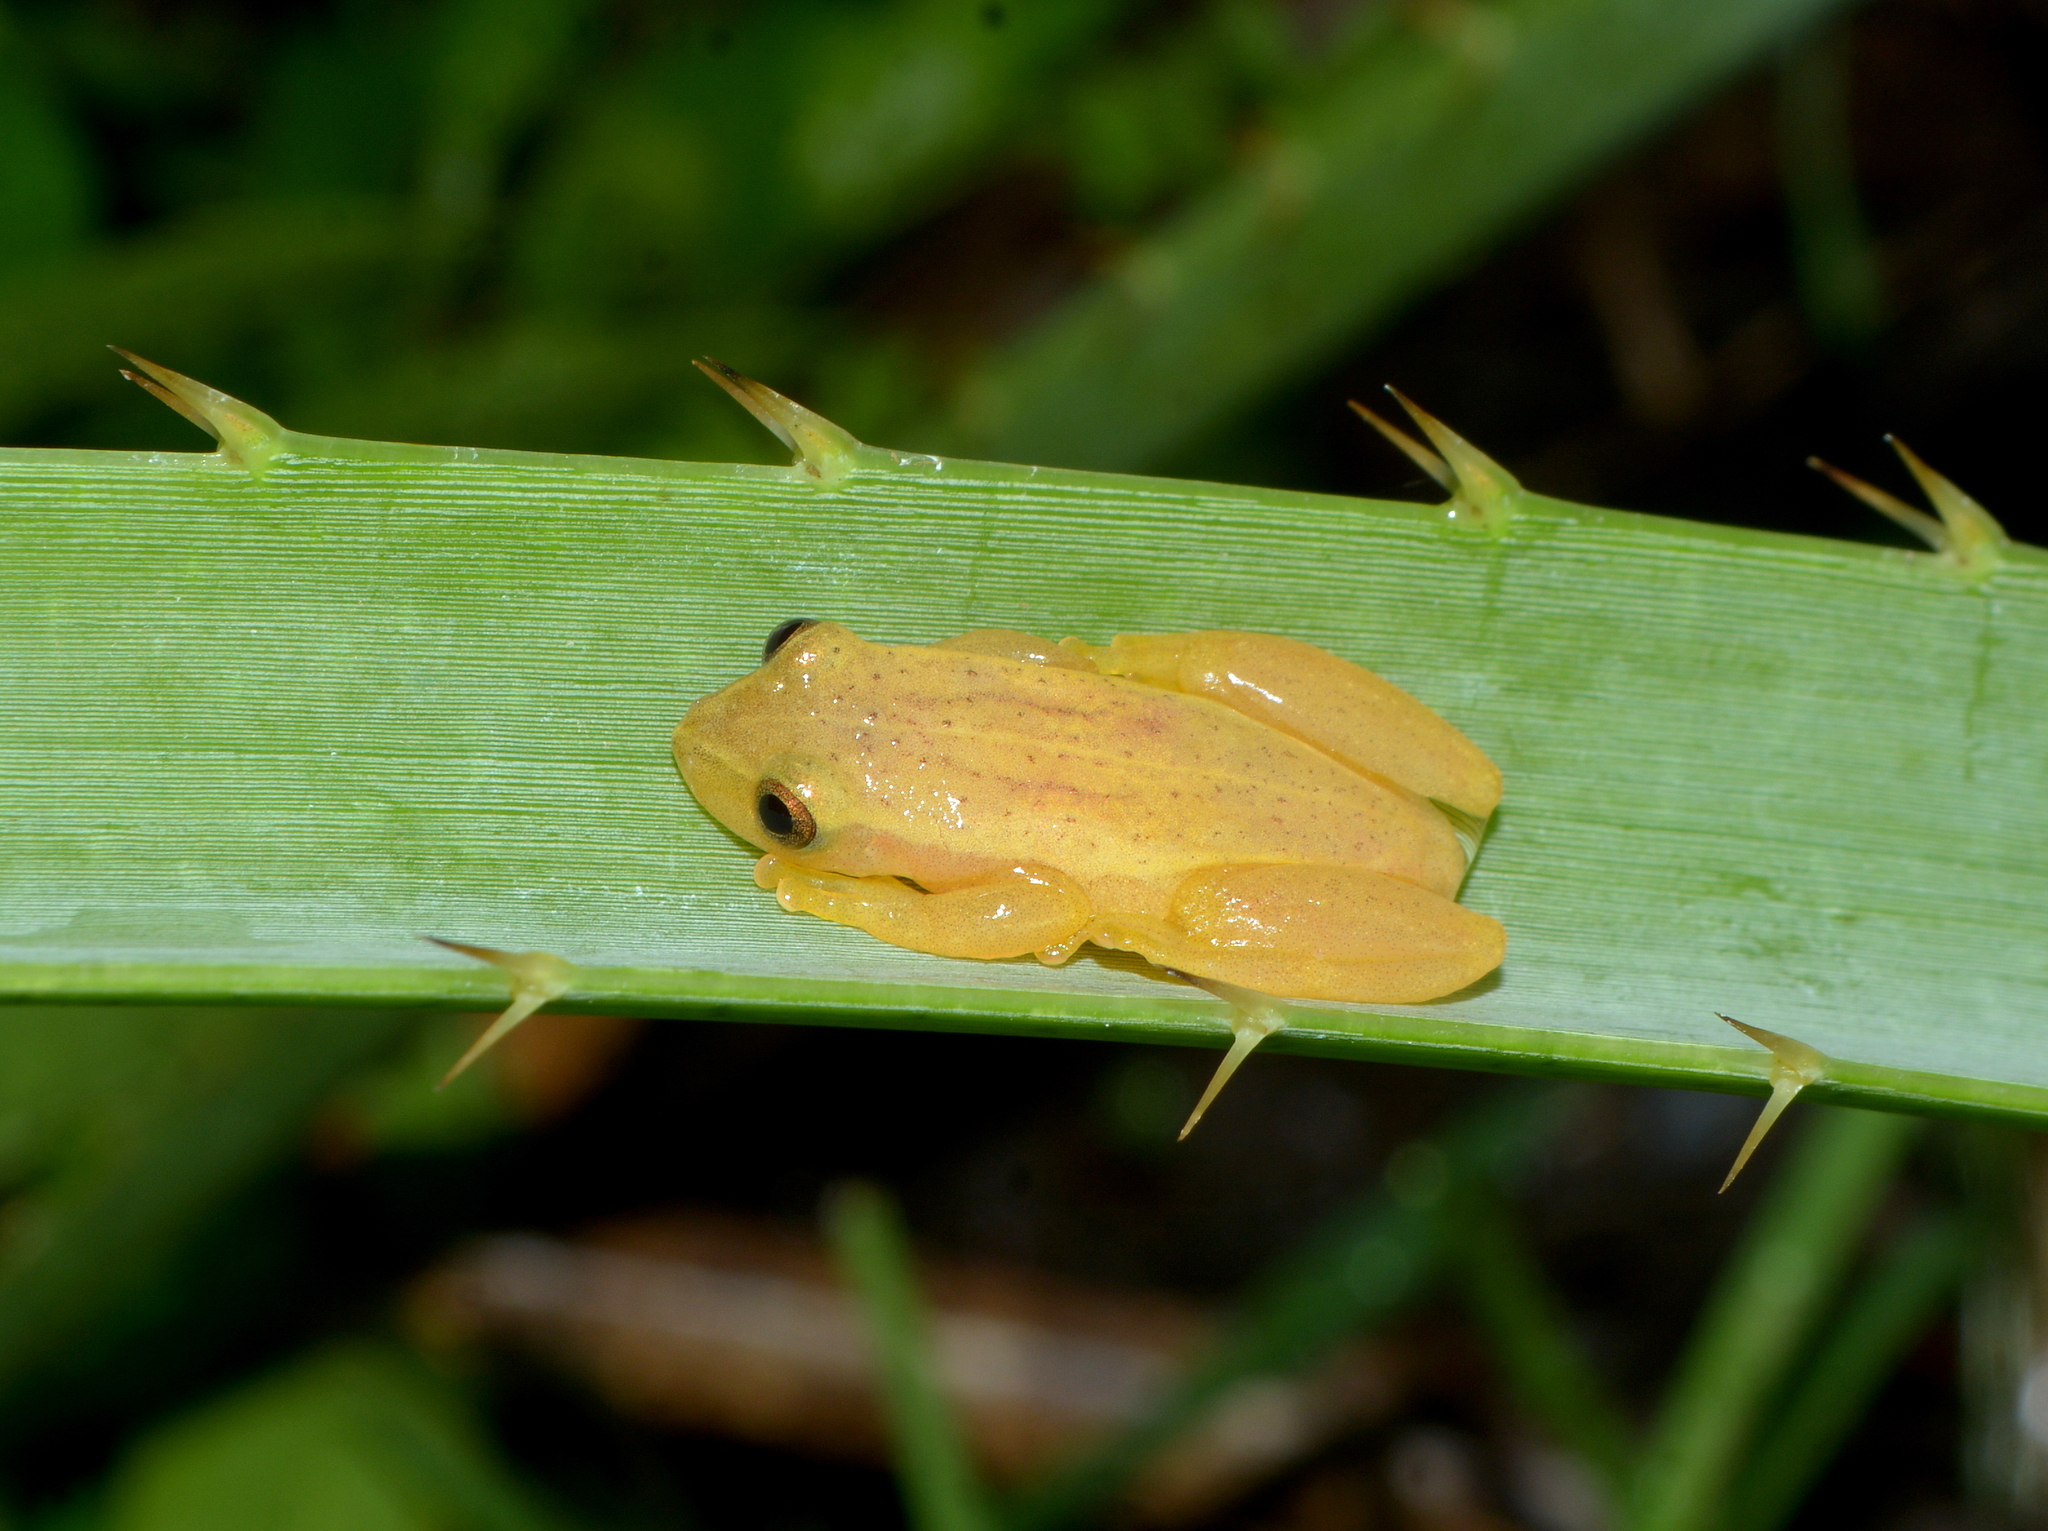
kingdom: Animalia
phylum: Chordata
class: Amphibia
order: Anura
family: Hylidae
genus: Dendropsophus
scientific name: Dendropsophus sanborni
